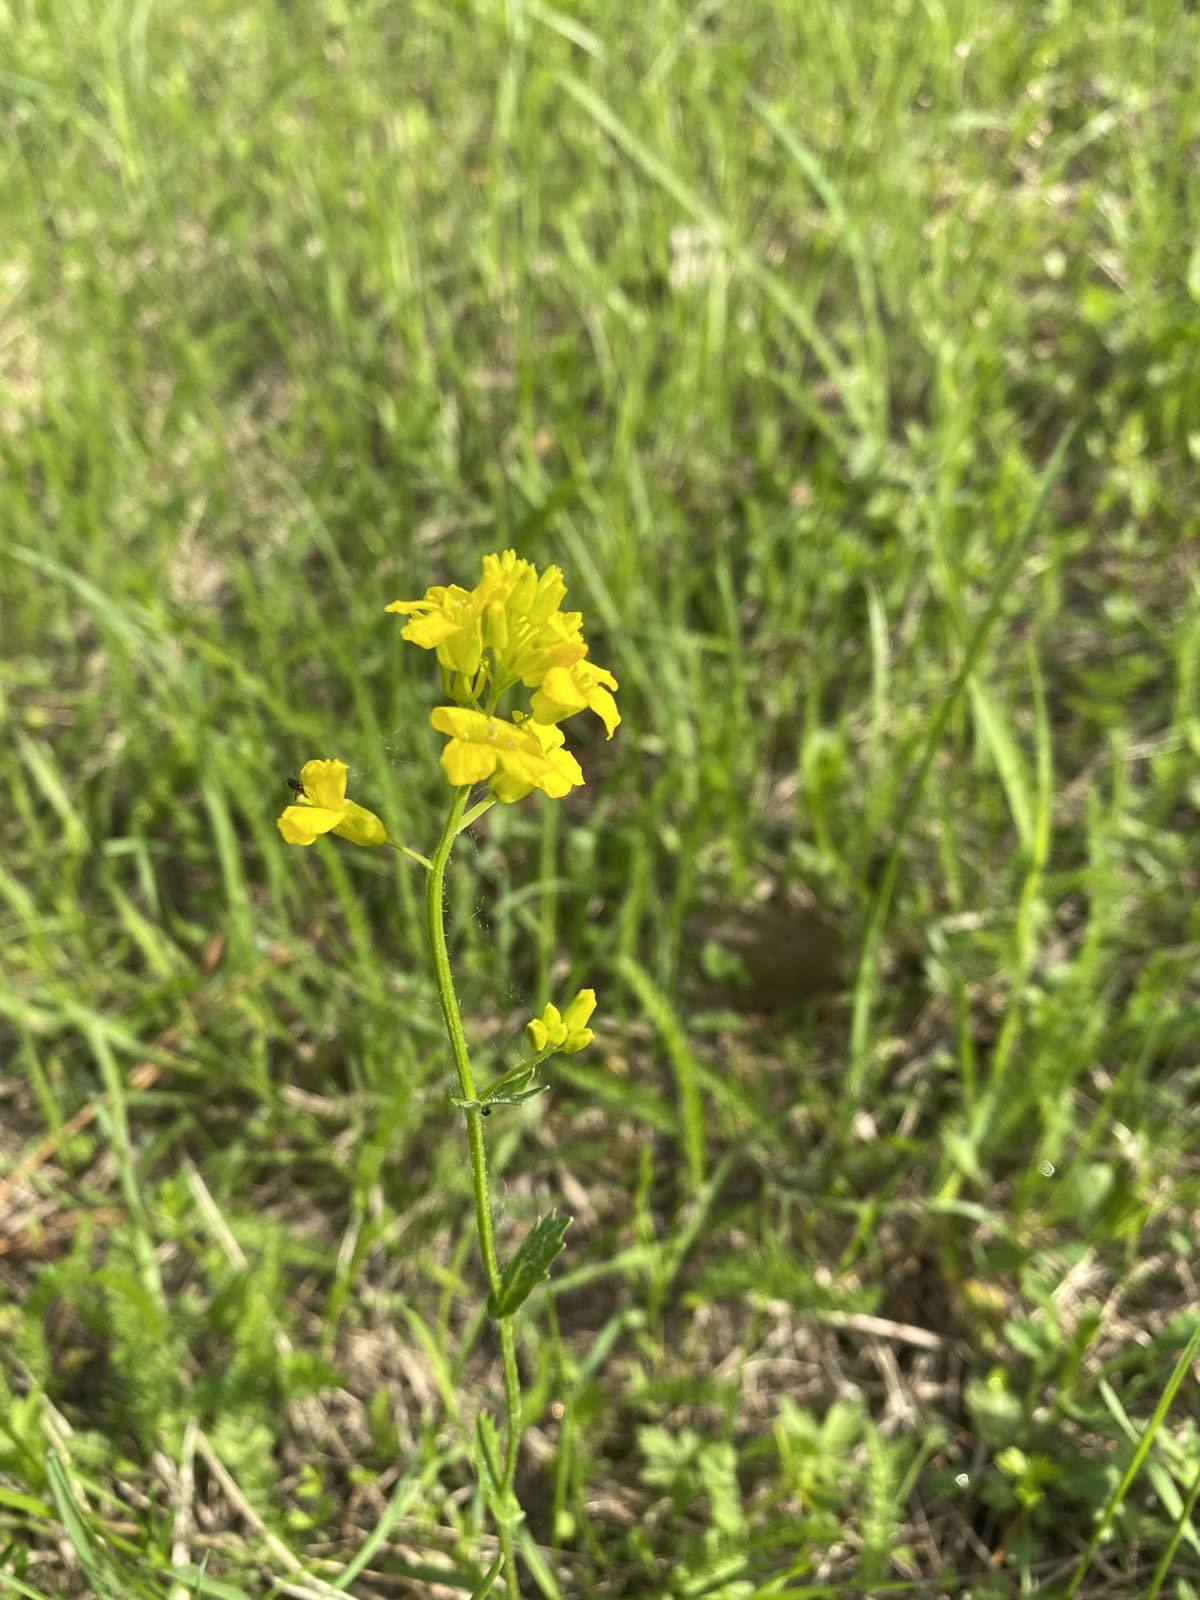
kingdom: Plantae
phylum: Tracheophyta
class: Magnoliopsida
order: Brassicales
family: Brassicaceae
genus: Barbarea
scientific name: Barbarea vulgaris
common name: Cressy-greens
